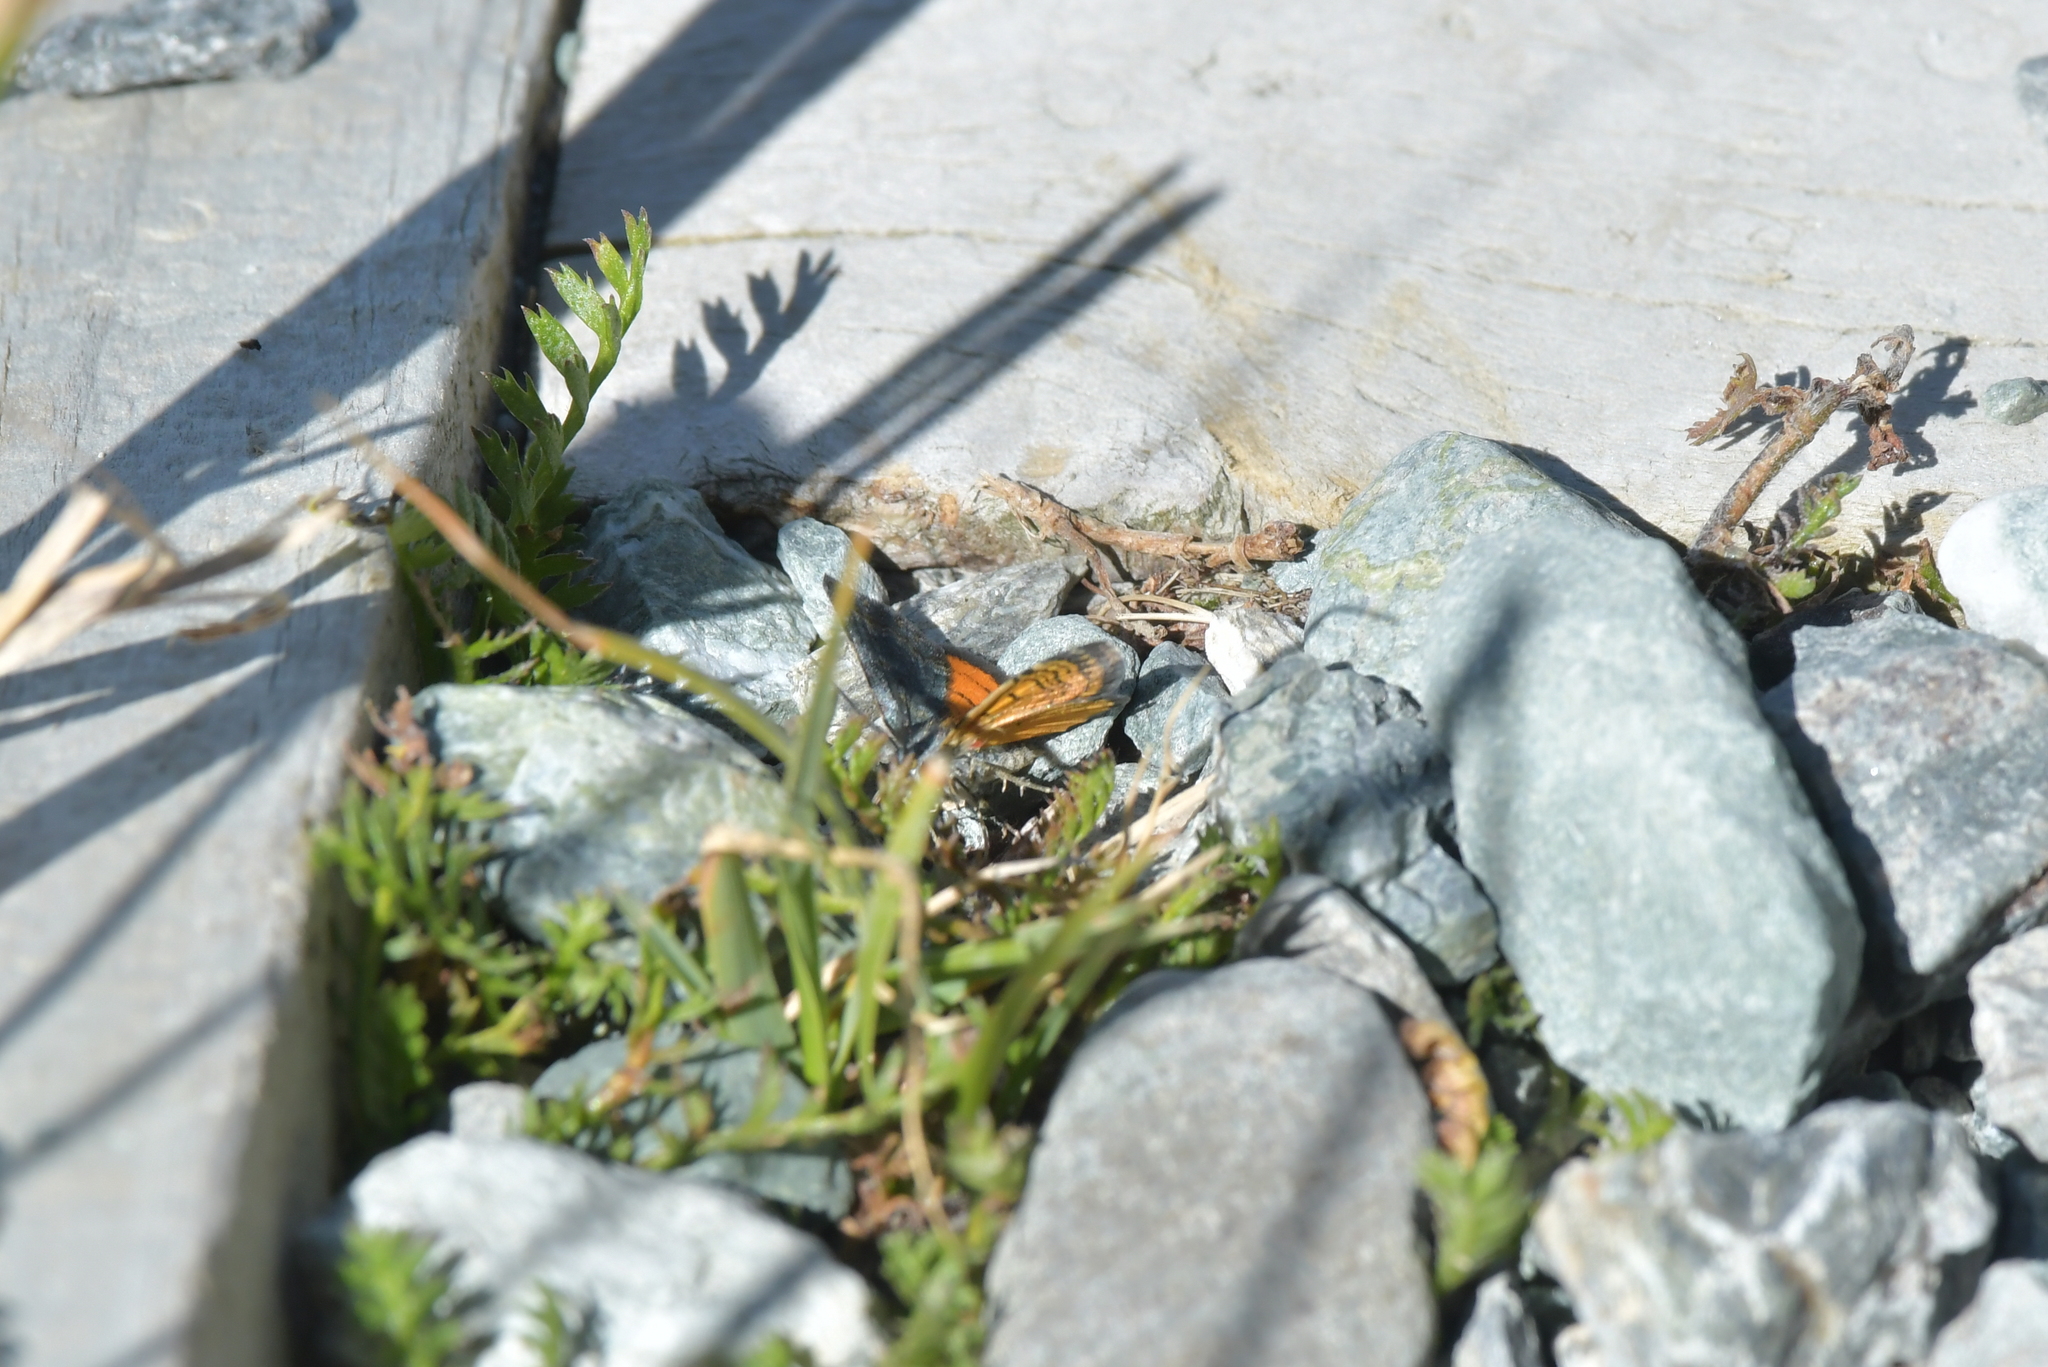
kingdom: Animalia
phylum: Arthropoda
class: Insecta
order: Lepidoptera
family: Geometridae
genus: Paranotoreas
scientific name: Paranotoreas zopyra
